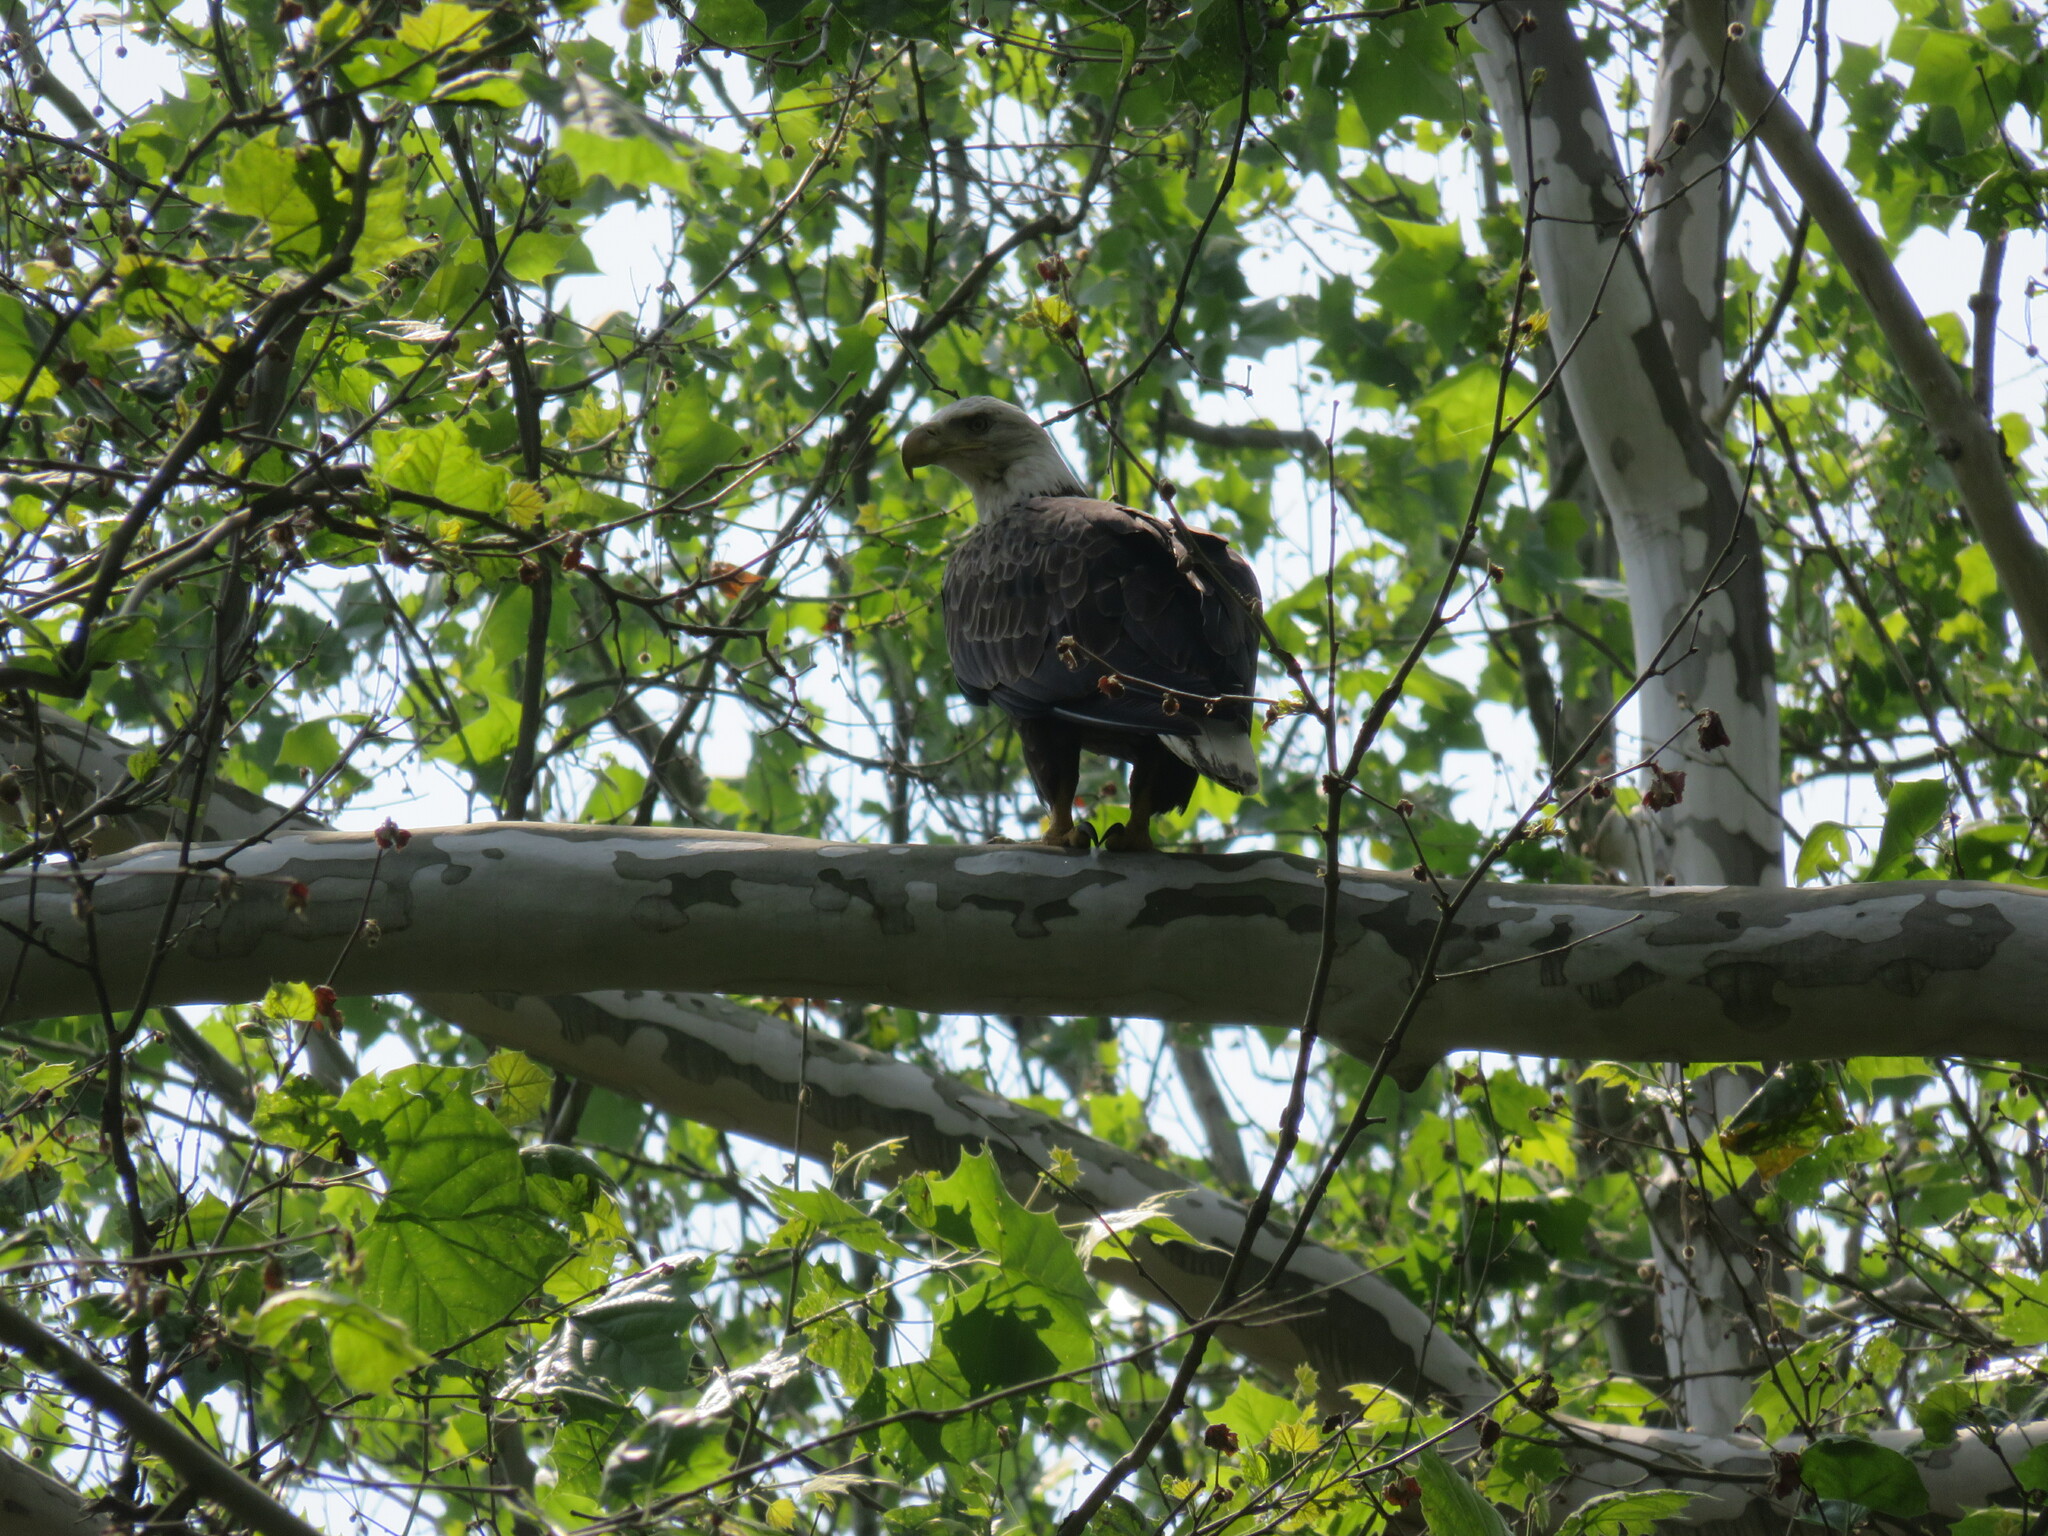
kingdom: Animalia
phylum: Chordata
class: Aves
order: Accipitriformes
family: Accipitridae
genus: Haliaeetus
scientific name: Haliaeetus leucocephalus
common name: Bald eagle
